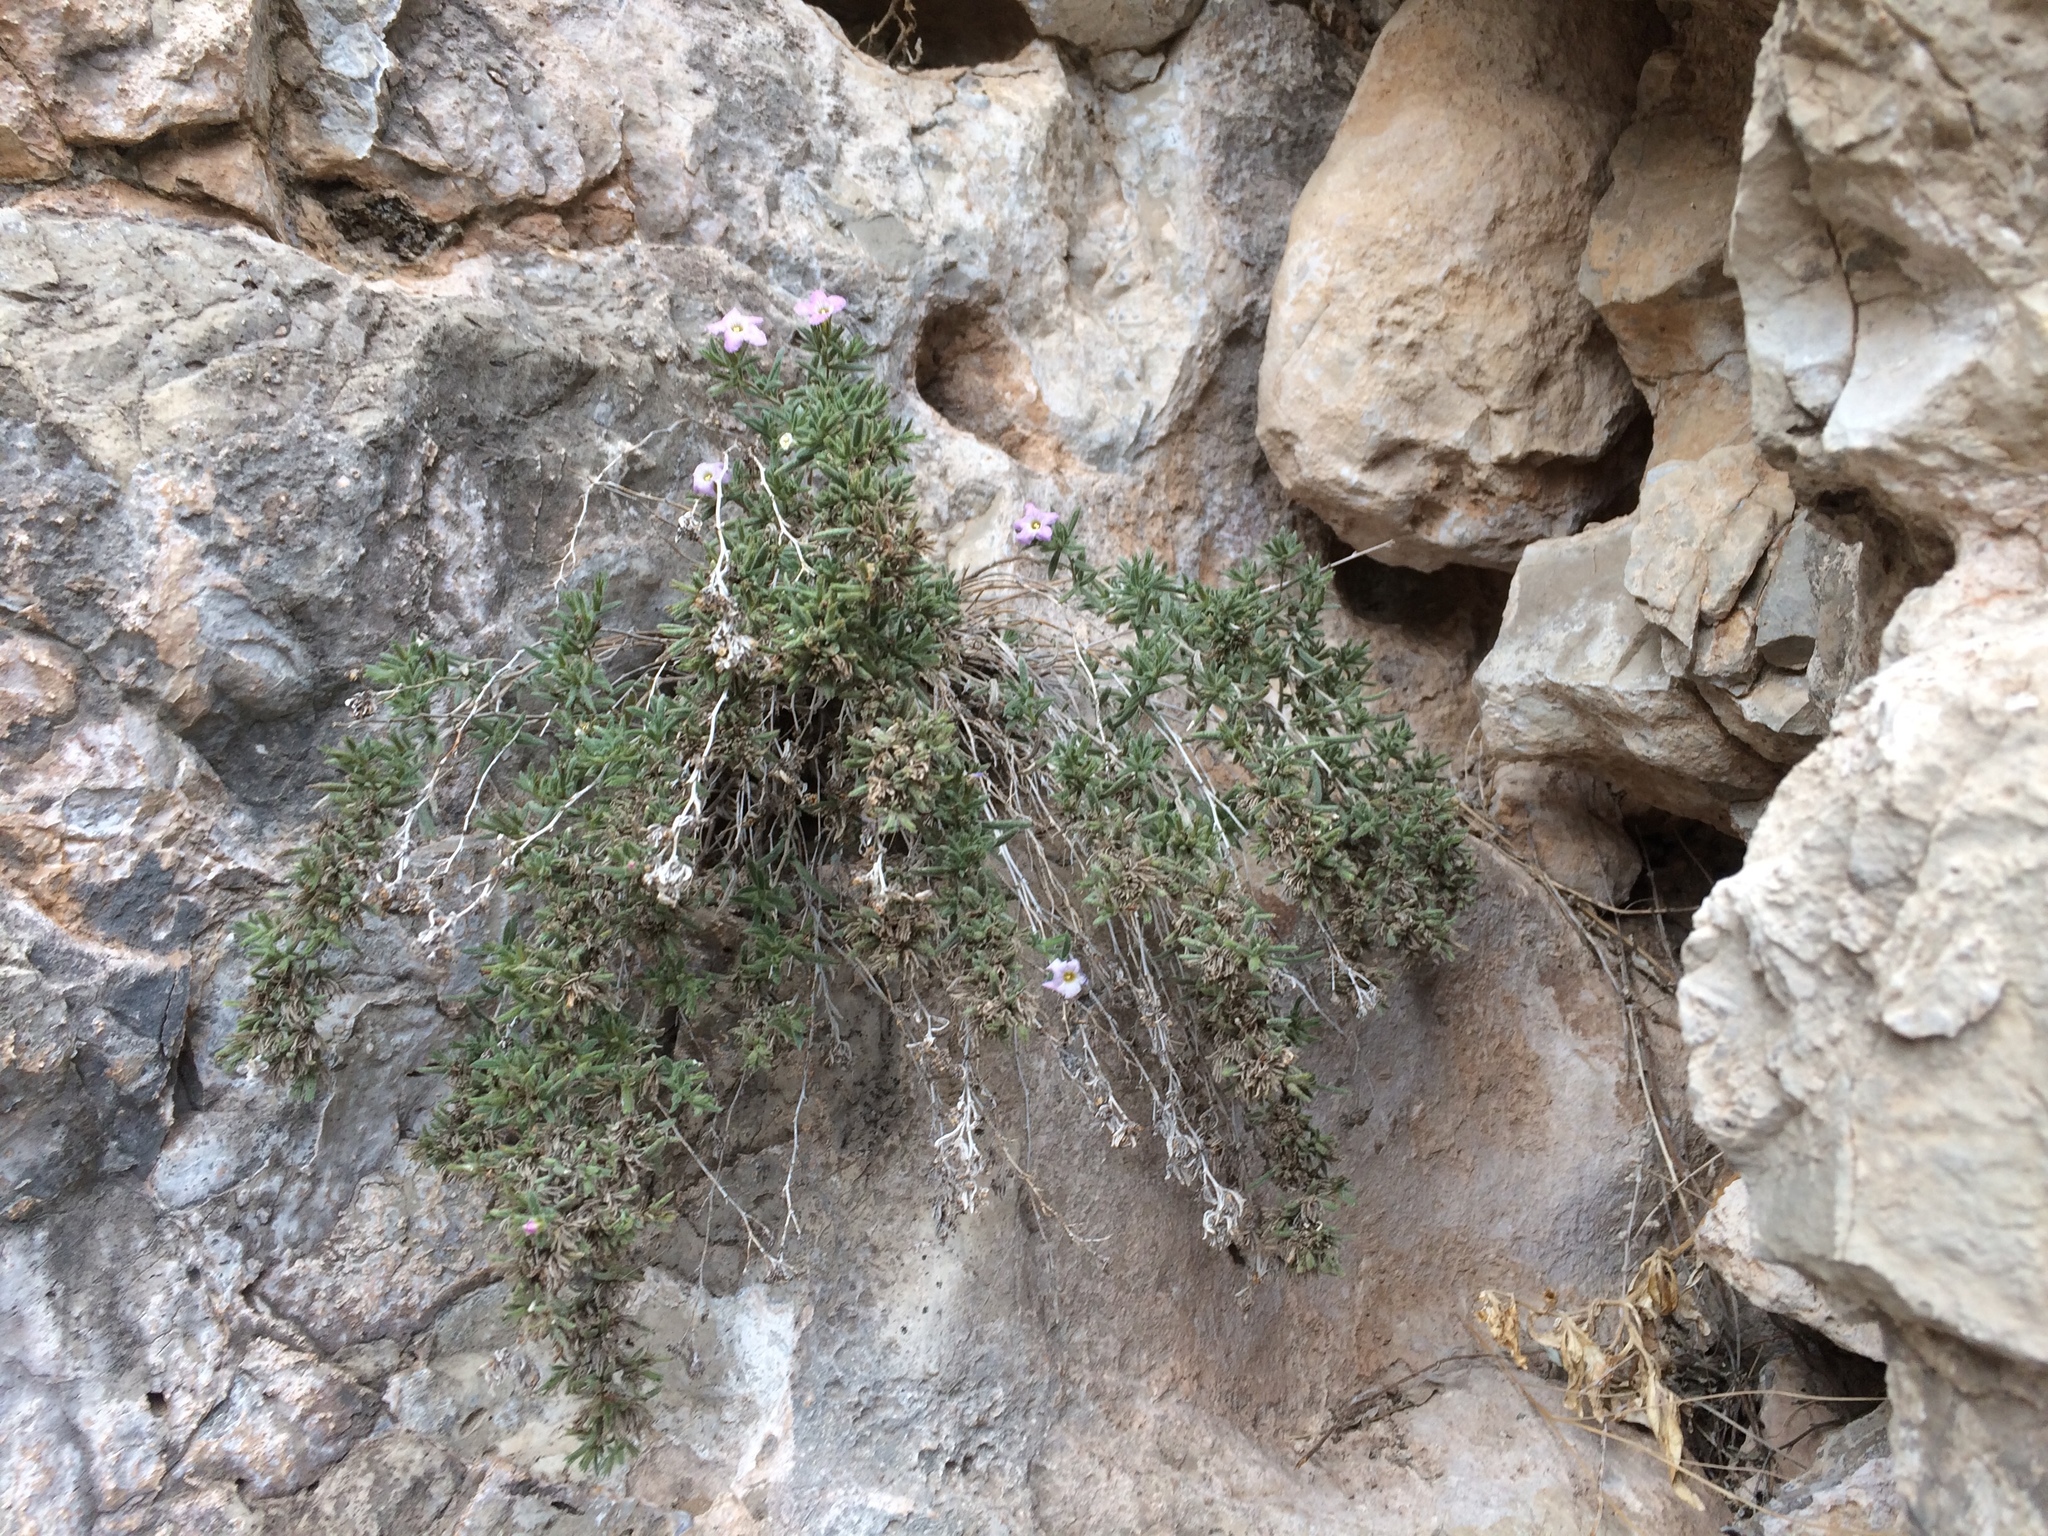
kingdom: Plantae
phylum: Tracheophyta
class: Magnoliopsida
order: Boraginales
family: Namaceae
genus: Nama
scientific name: Nama xylopoda
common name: Yellowseed fiddleleaf
